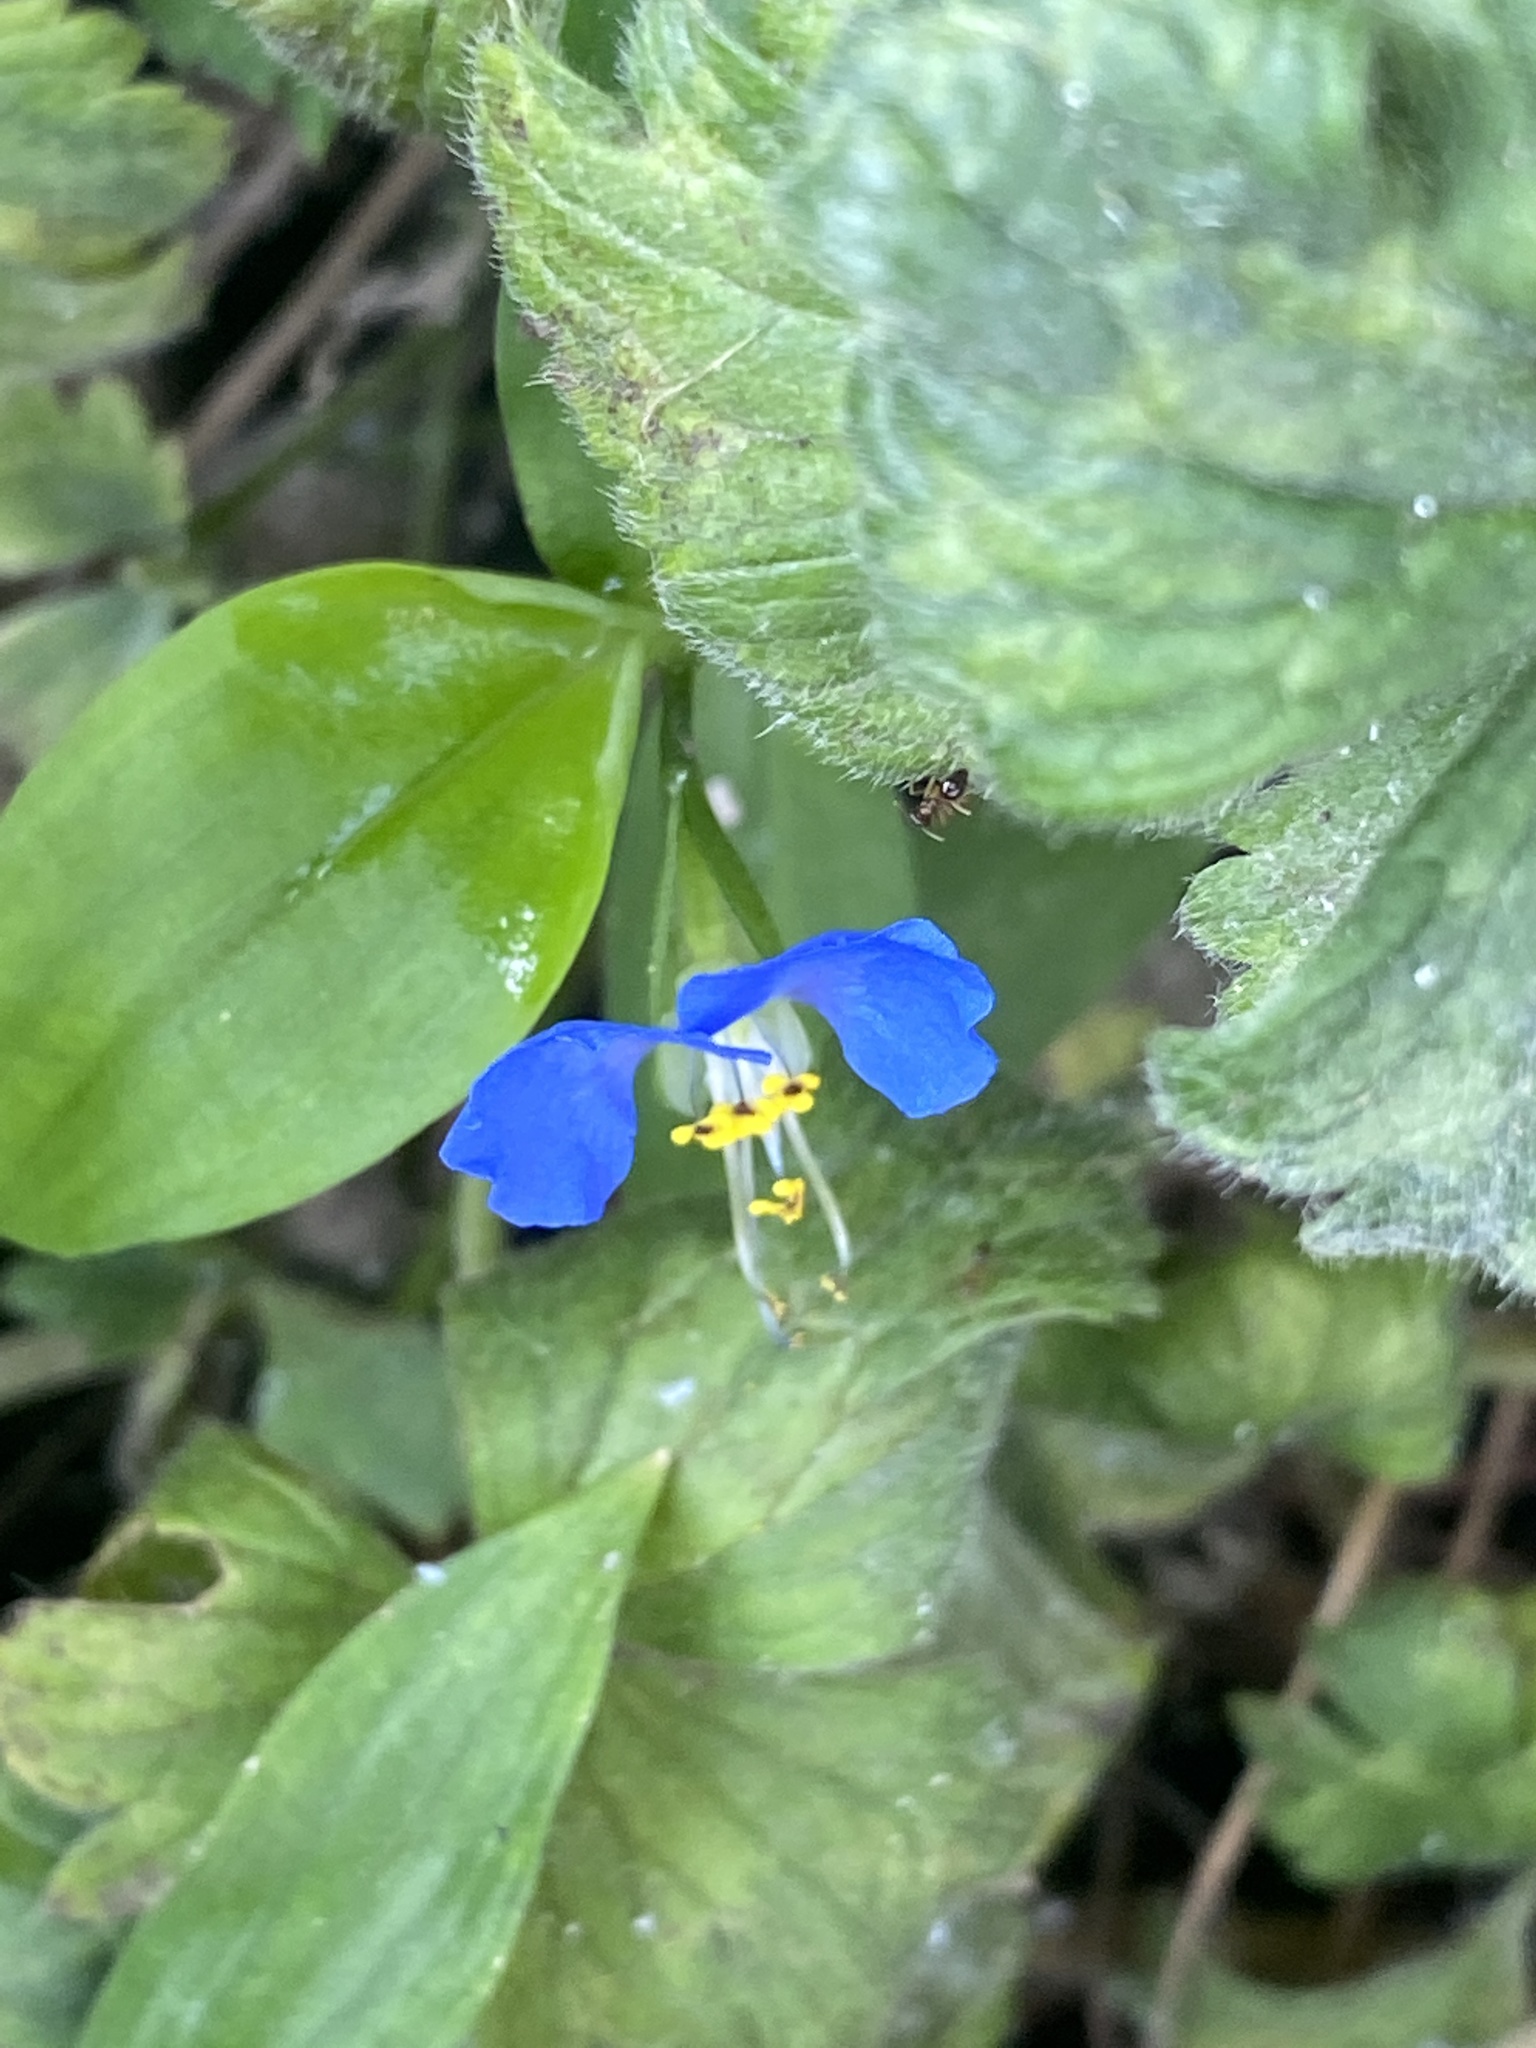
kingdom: Plantae
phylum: Tracheophyta
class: Liliopsida
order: Commelinales
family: Commelinaceae
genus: Commelina
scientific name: Commelina communis
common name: Asiatic dayflower
